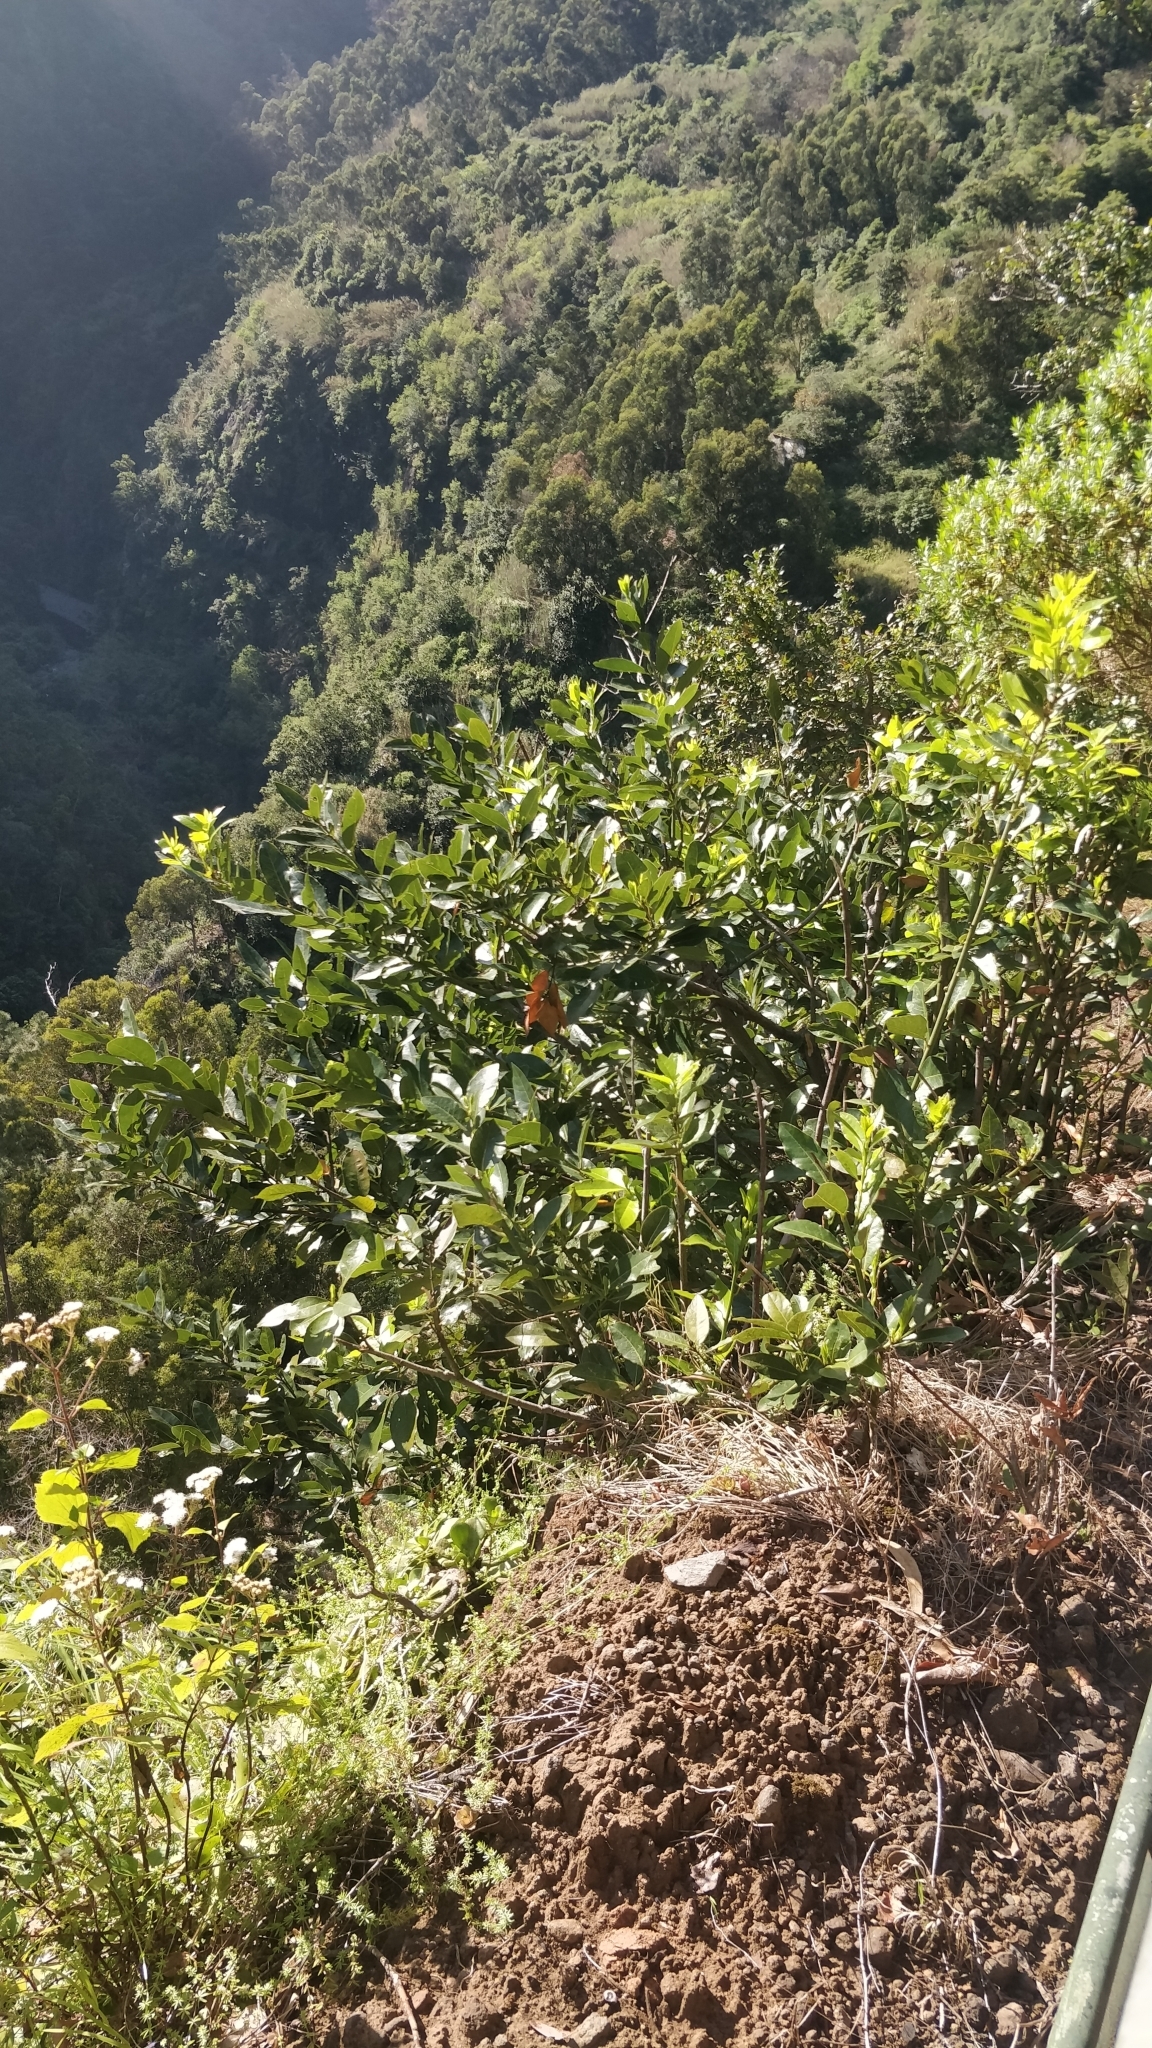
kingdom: Plantae
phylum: Tracheophyta
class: Magnoliopsida
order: Laurales
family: Lauraceae
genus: Laurus
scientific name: Laurus novocanariensis
